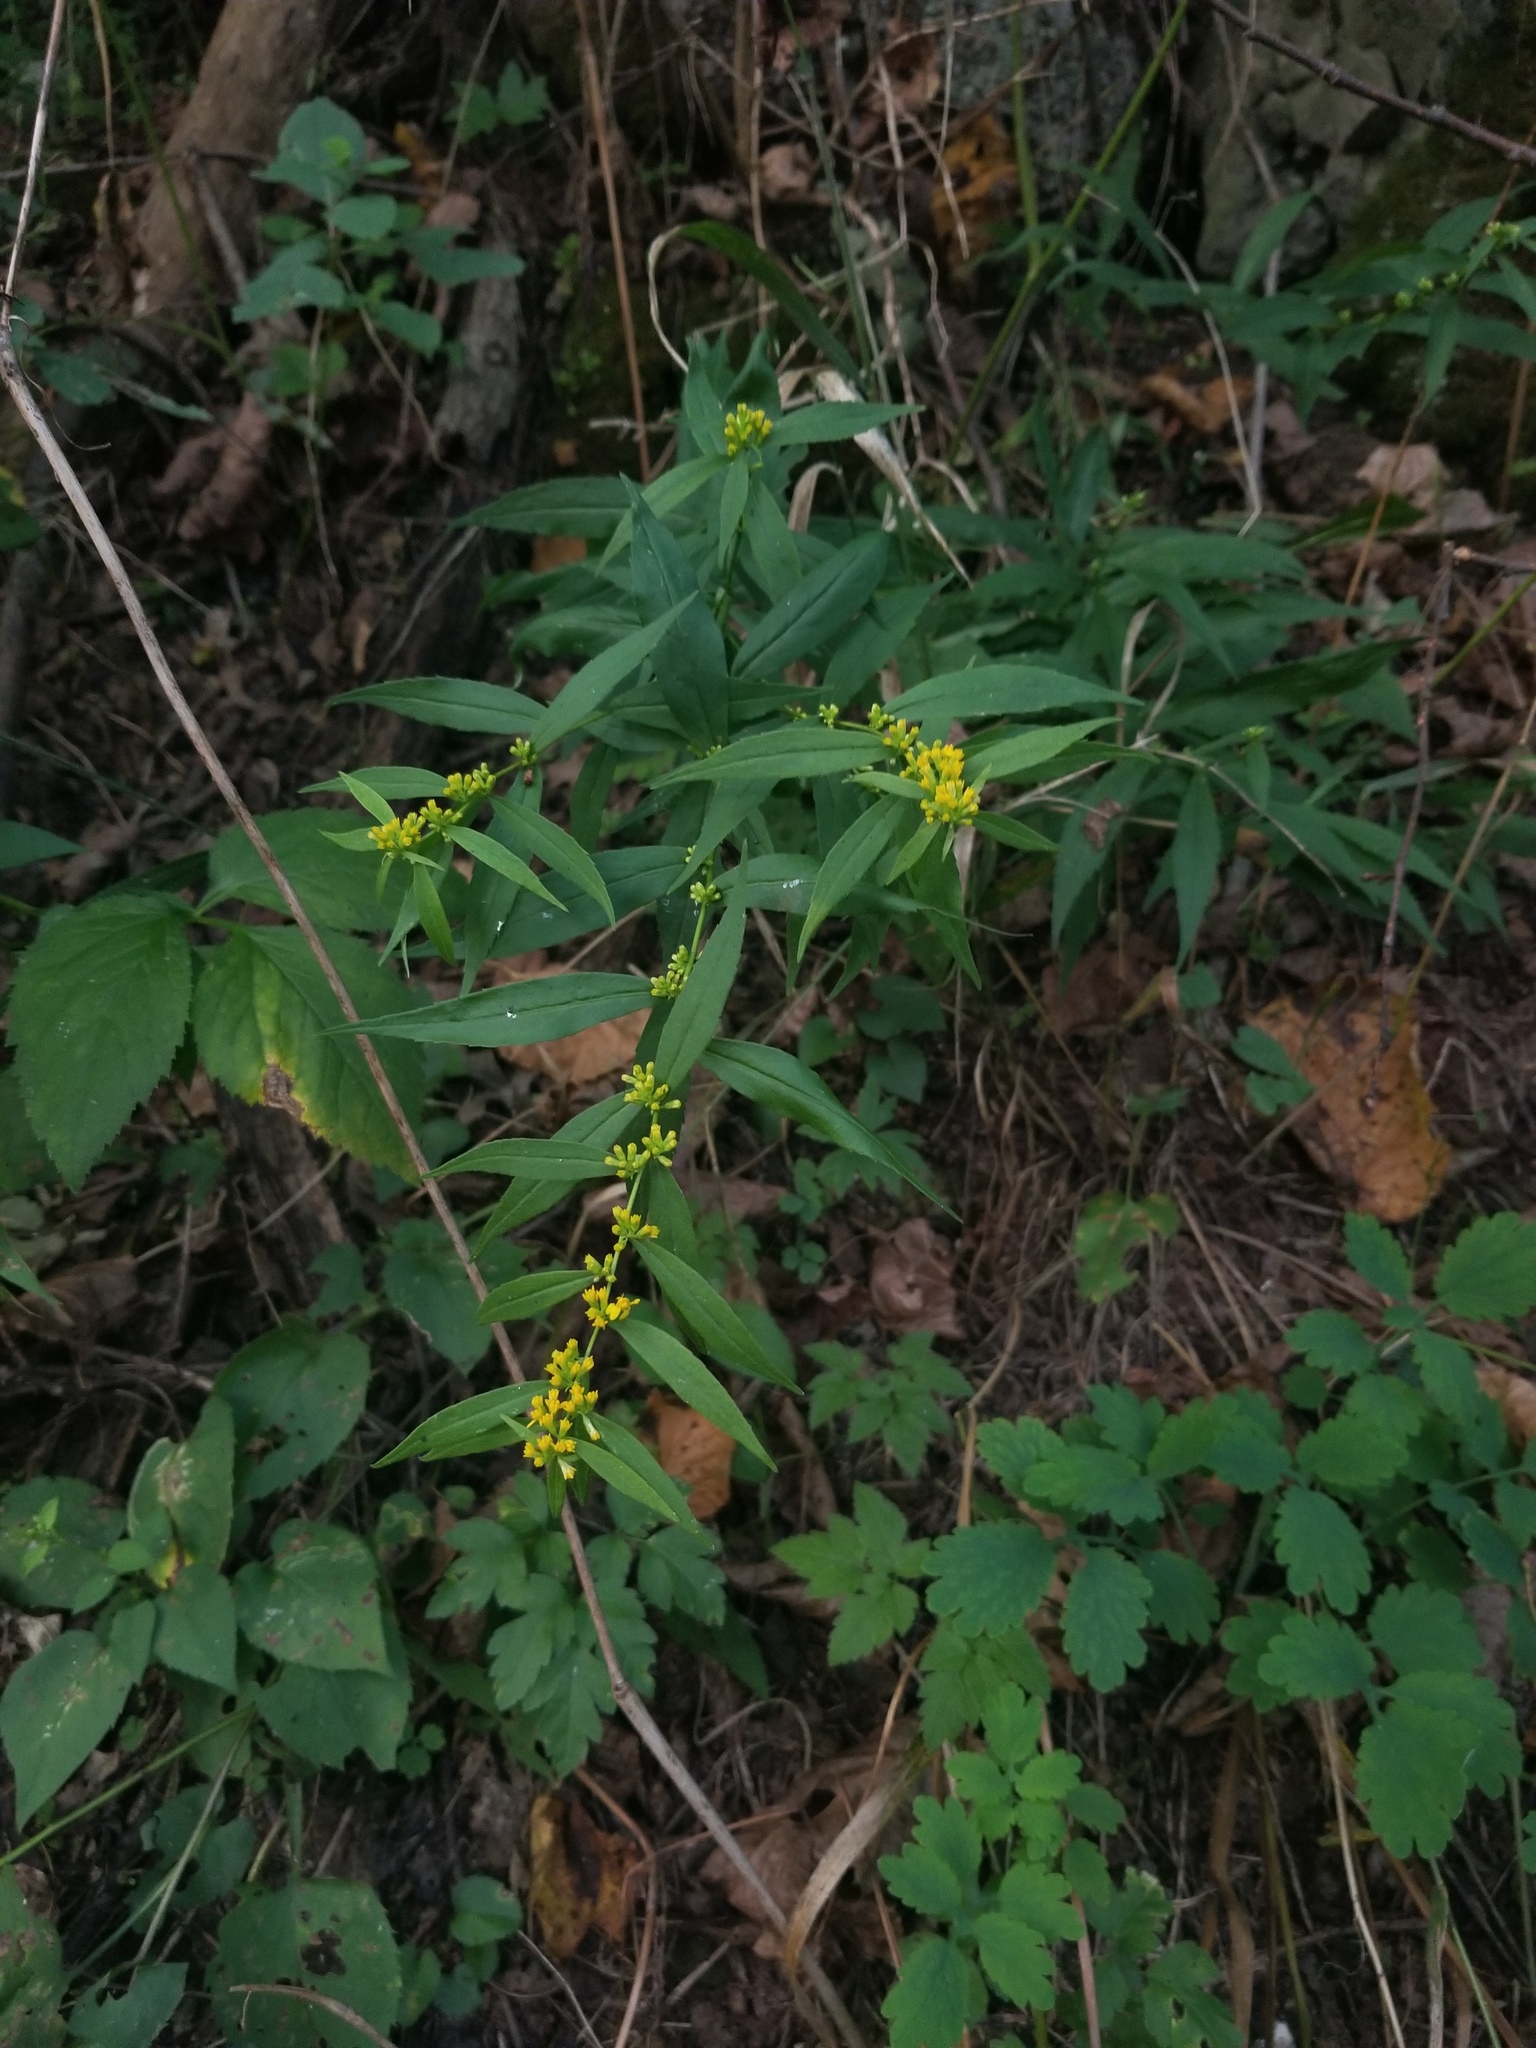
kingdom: Plantae
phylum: Tracheophyta
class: Magnoliopsida
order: Asterales
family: Asteraceae
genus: Solidago
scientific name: Solidago caesia
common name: Woodland goldenrod
